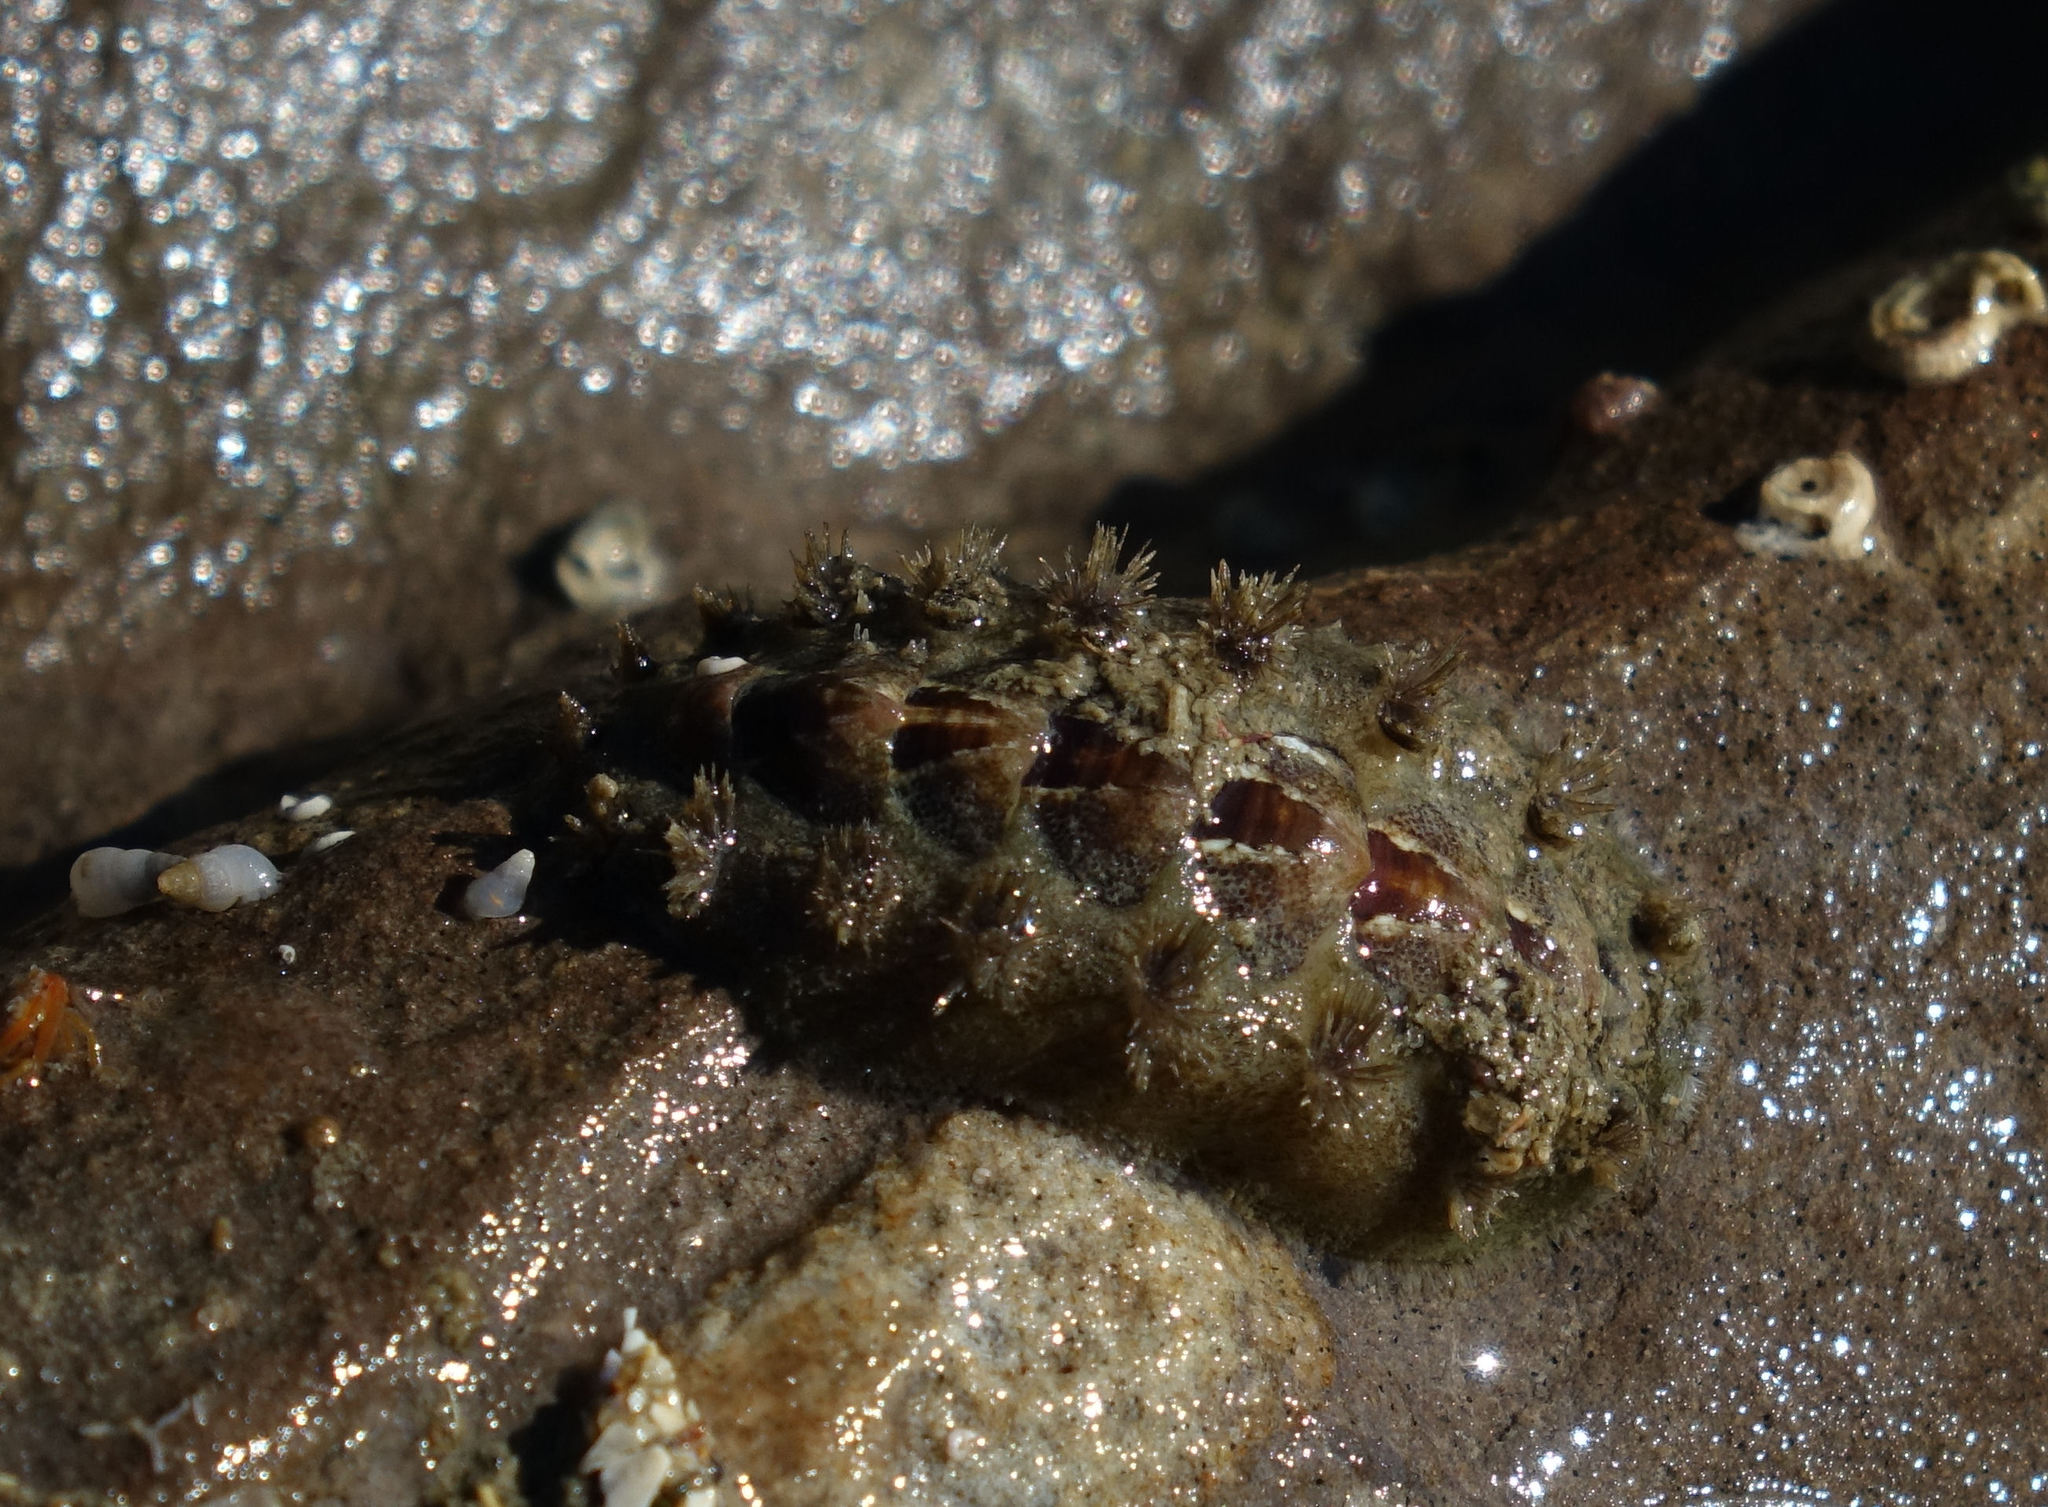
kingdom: Animalia
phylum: Mollusca
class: Polyplacophora
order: Chitonida
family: Acanthochitonidae
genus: Acanthochitona
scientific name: Acanthochitona zelandica
